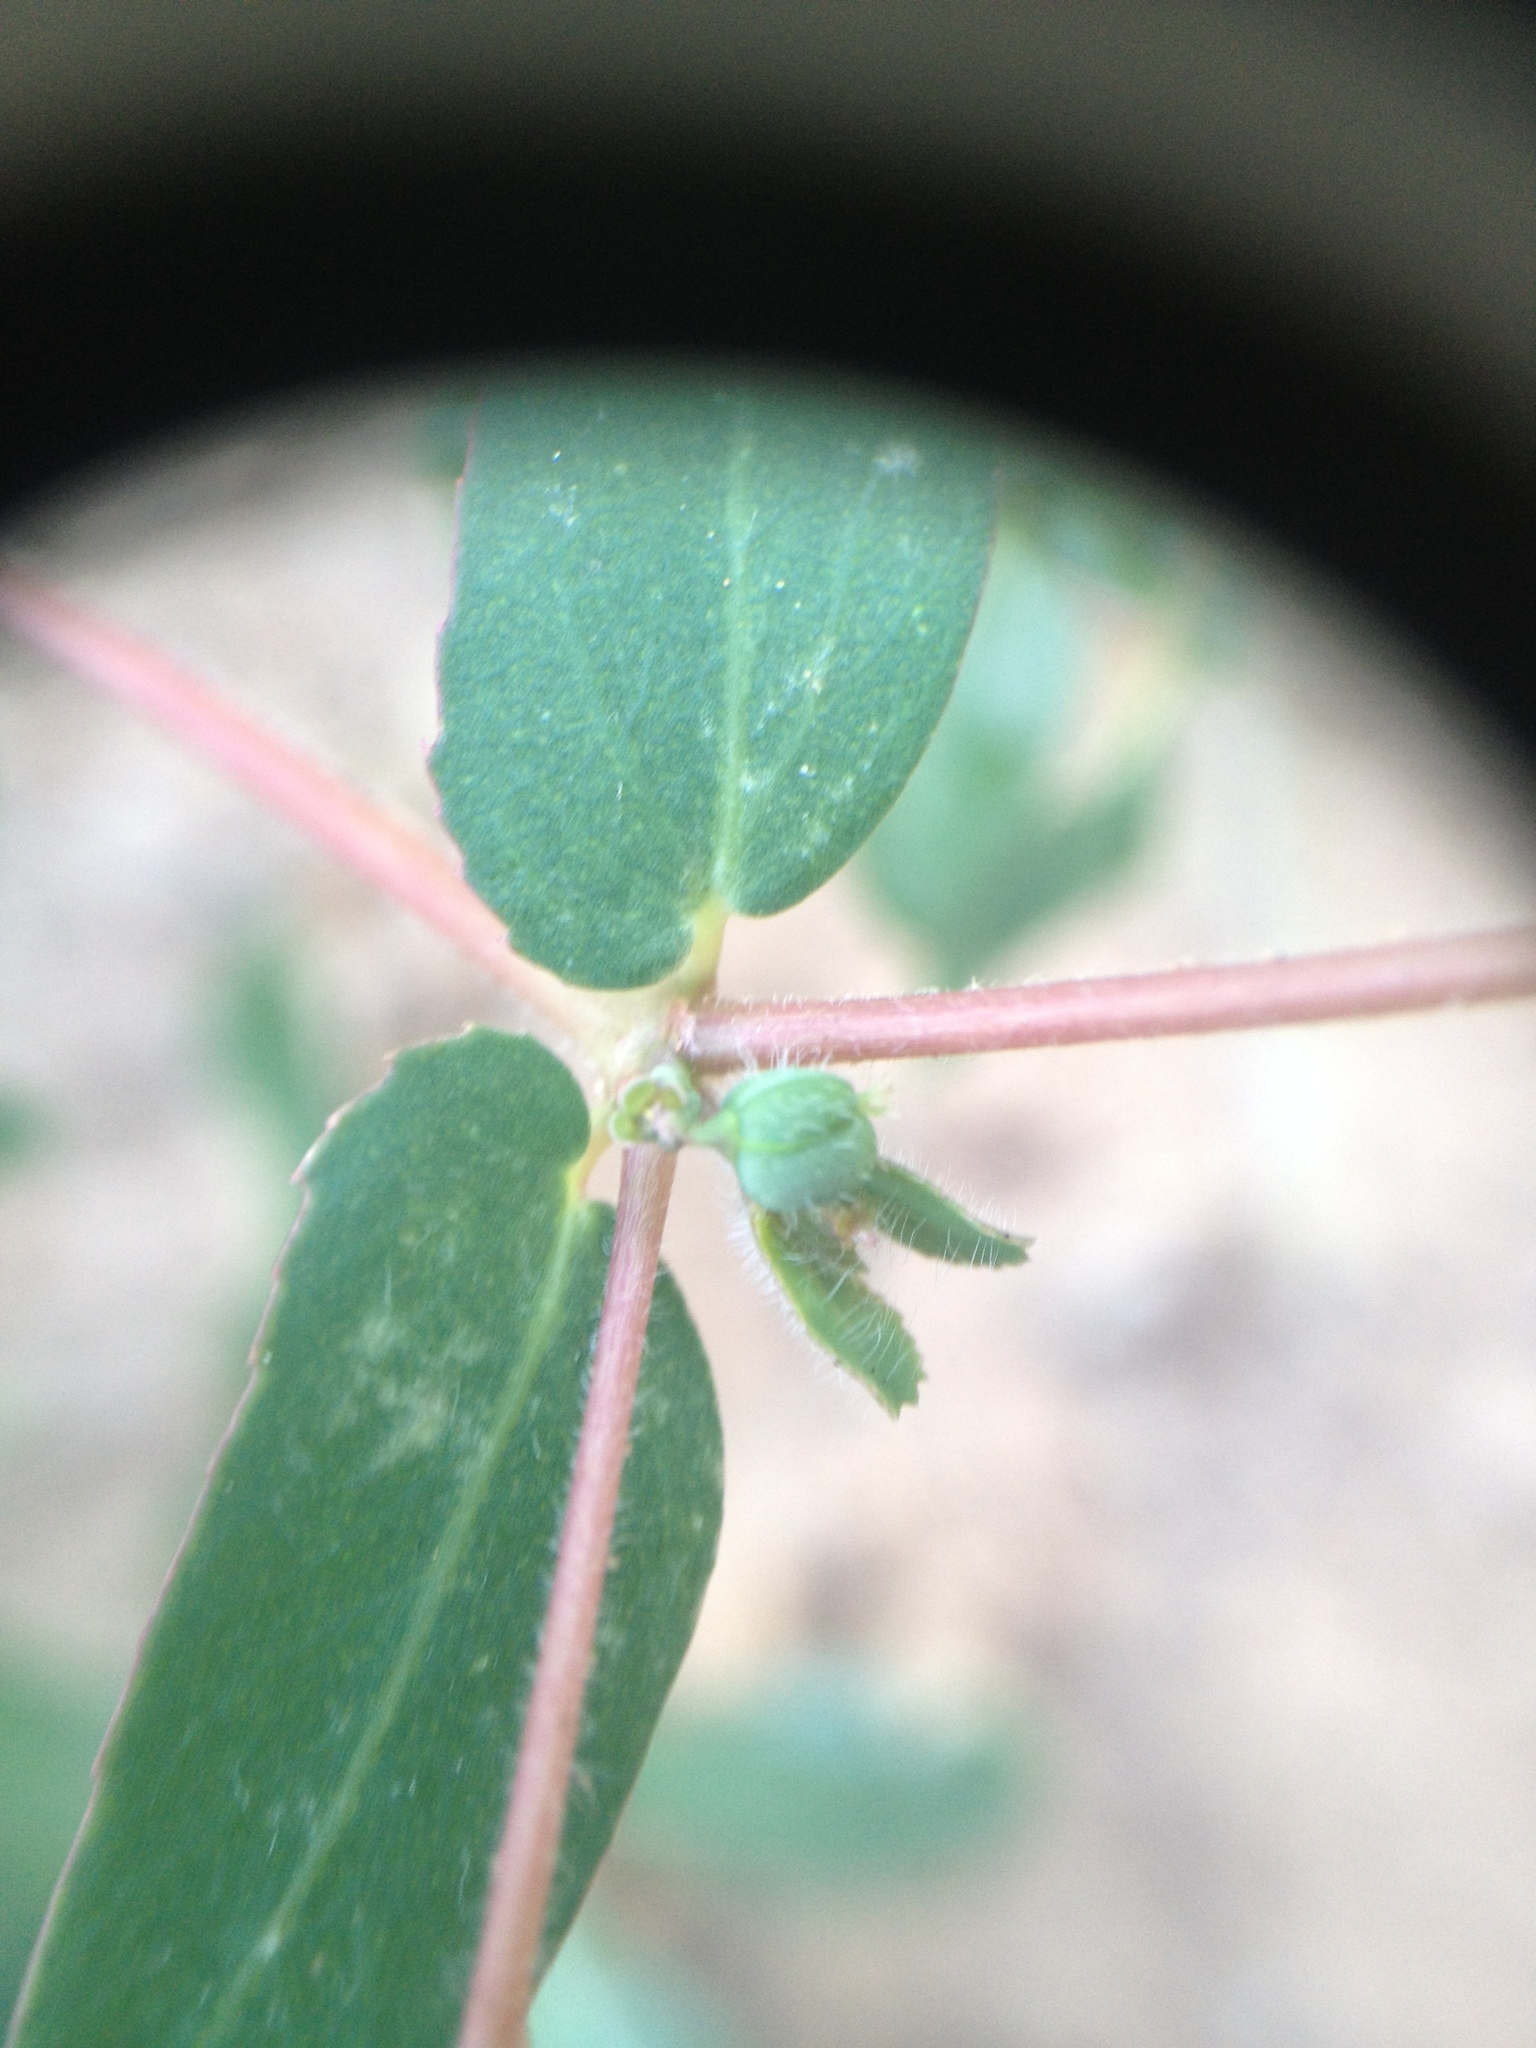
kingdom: Plantae
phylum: Tracheophyta
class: Magnoliopsida
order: Malpighiales
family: Euphorbiaceae
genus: Euphorbia
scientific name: Euphorbia eichleri
